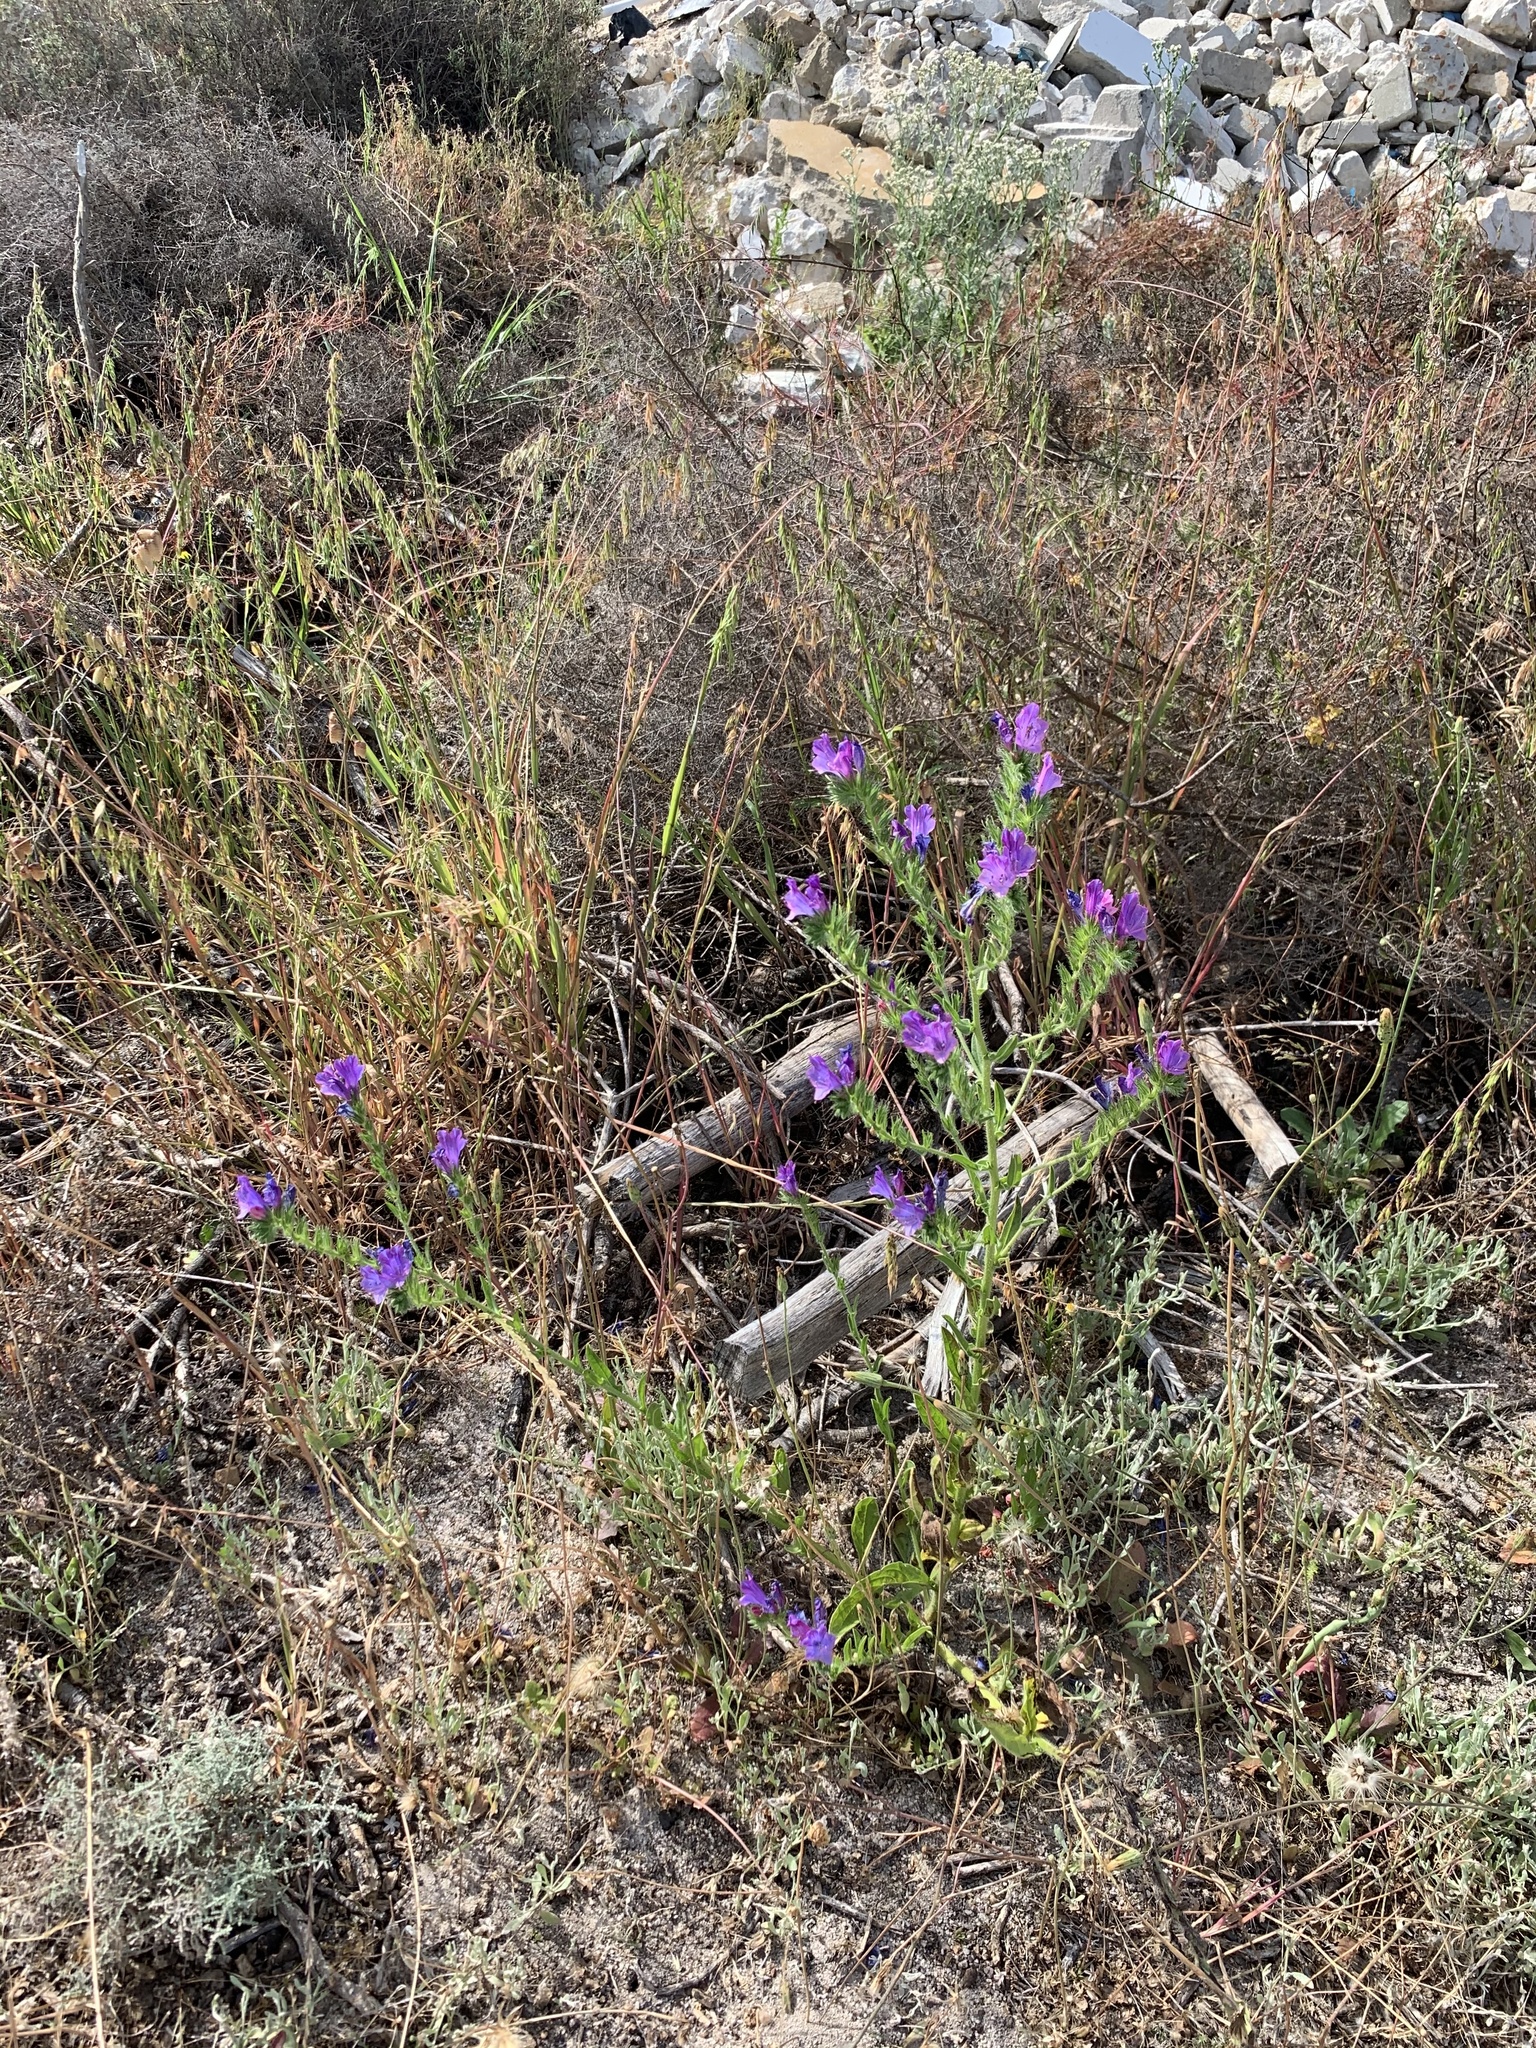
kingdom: Plantae
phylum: Tracheophyta
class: Magnoliopsida
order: Boraginales
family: Boraginaceae
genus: Echium
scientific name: Echium plantagineum
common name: Purple viper's-bugloss
